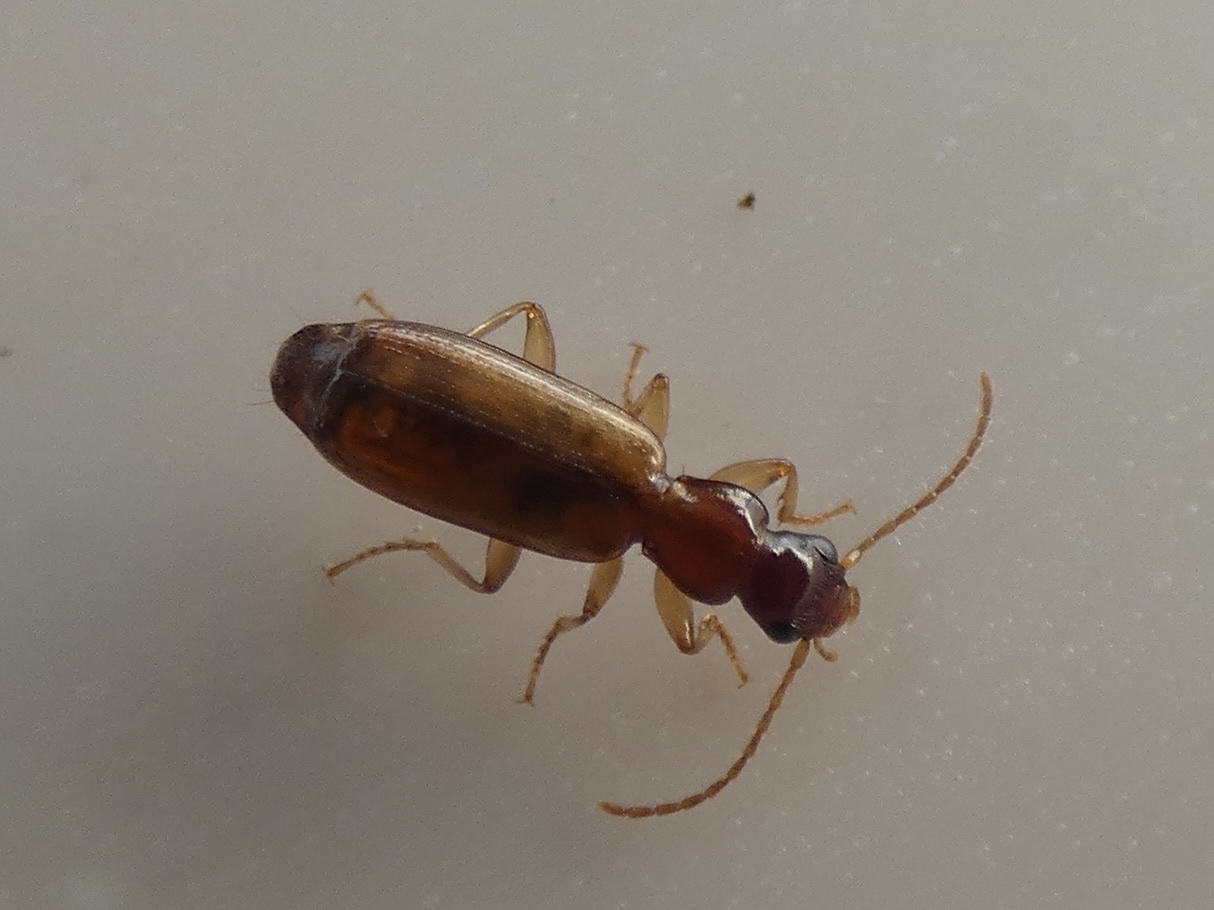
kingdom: Animalia
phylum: Arthropoda
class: Insecta
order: Coleoptera
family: Carabidae
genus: Paradromius
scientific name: Paradromius linearis
